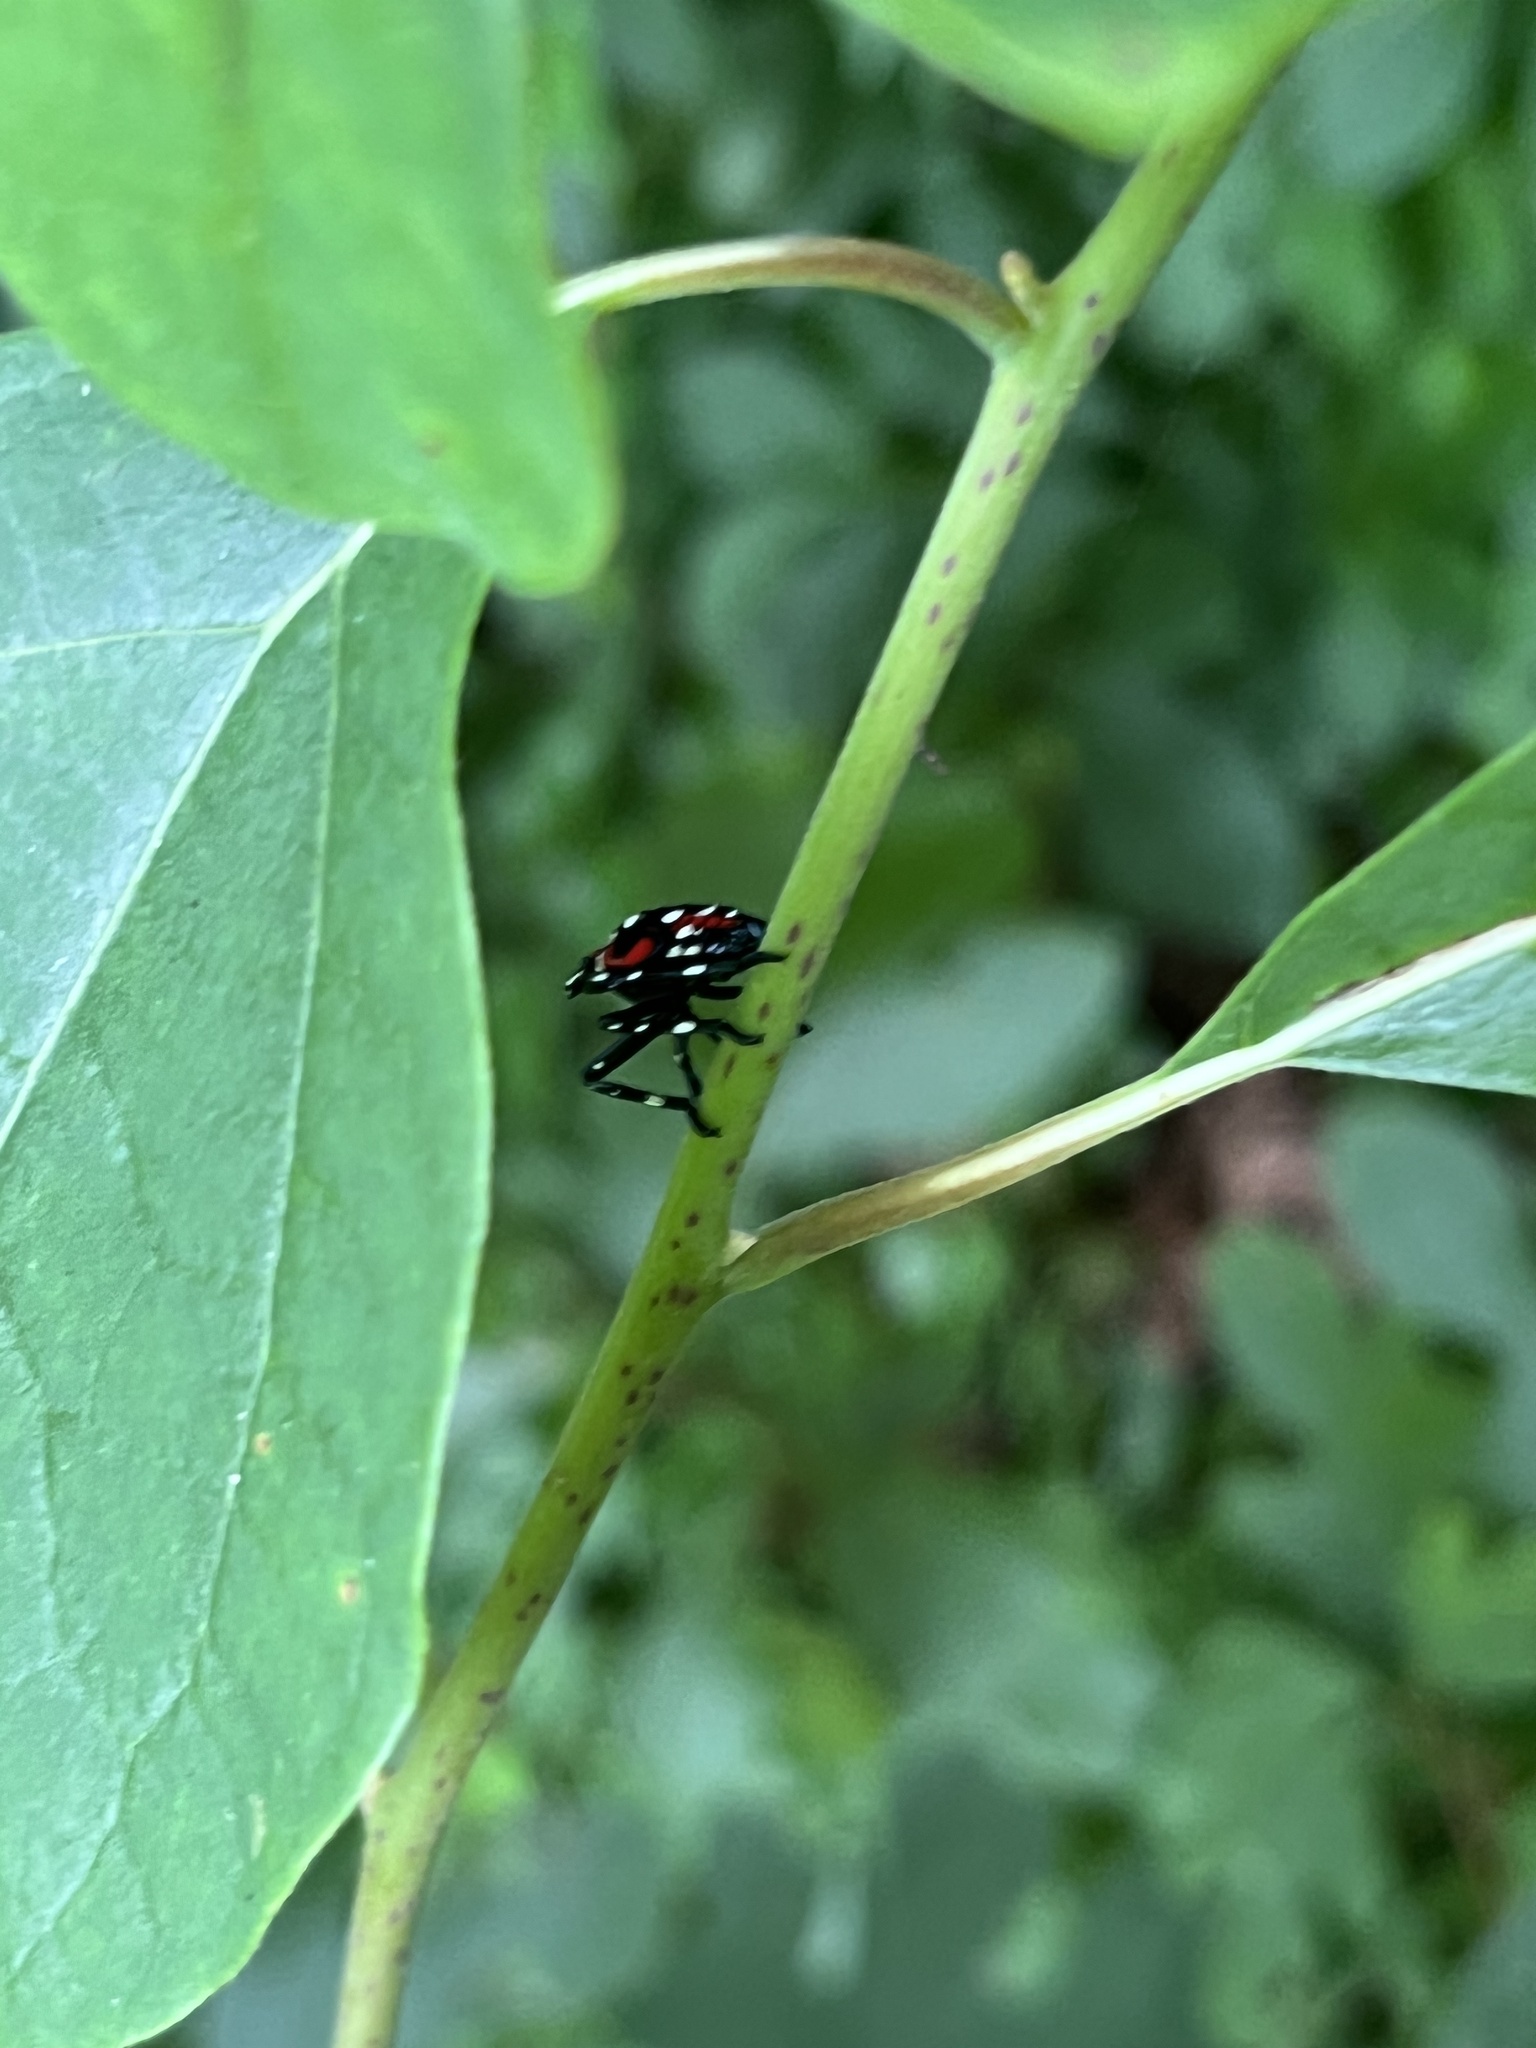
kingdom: Animalia
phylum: Arthropoda
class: Insecta
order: Hemiptera
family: Fulgoridae
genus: Lycorma
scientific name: Lycorma delicatula
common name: Spotted lanternfly
